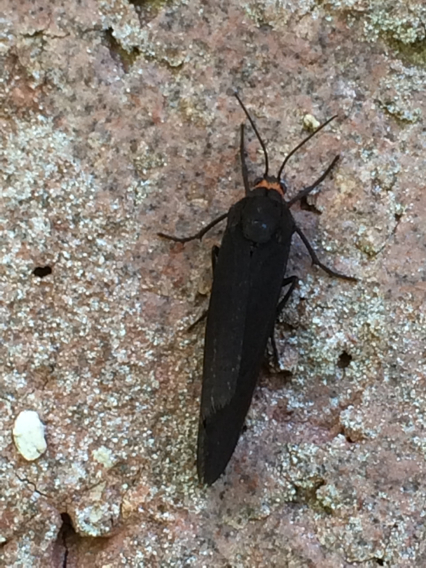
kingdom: Animalia
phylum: Arthropoda
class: Insecta
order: Lepidoptera
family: Erebidae
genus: Virbia
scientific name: Virbia laeta
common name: Joyful holomelina moth
